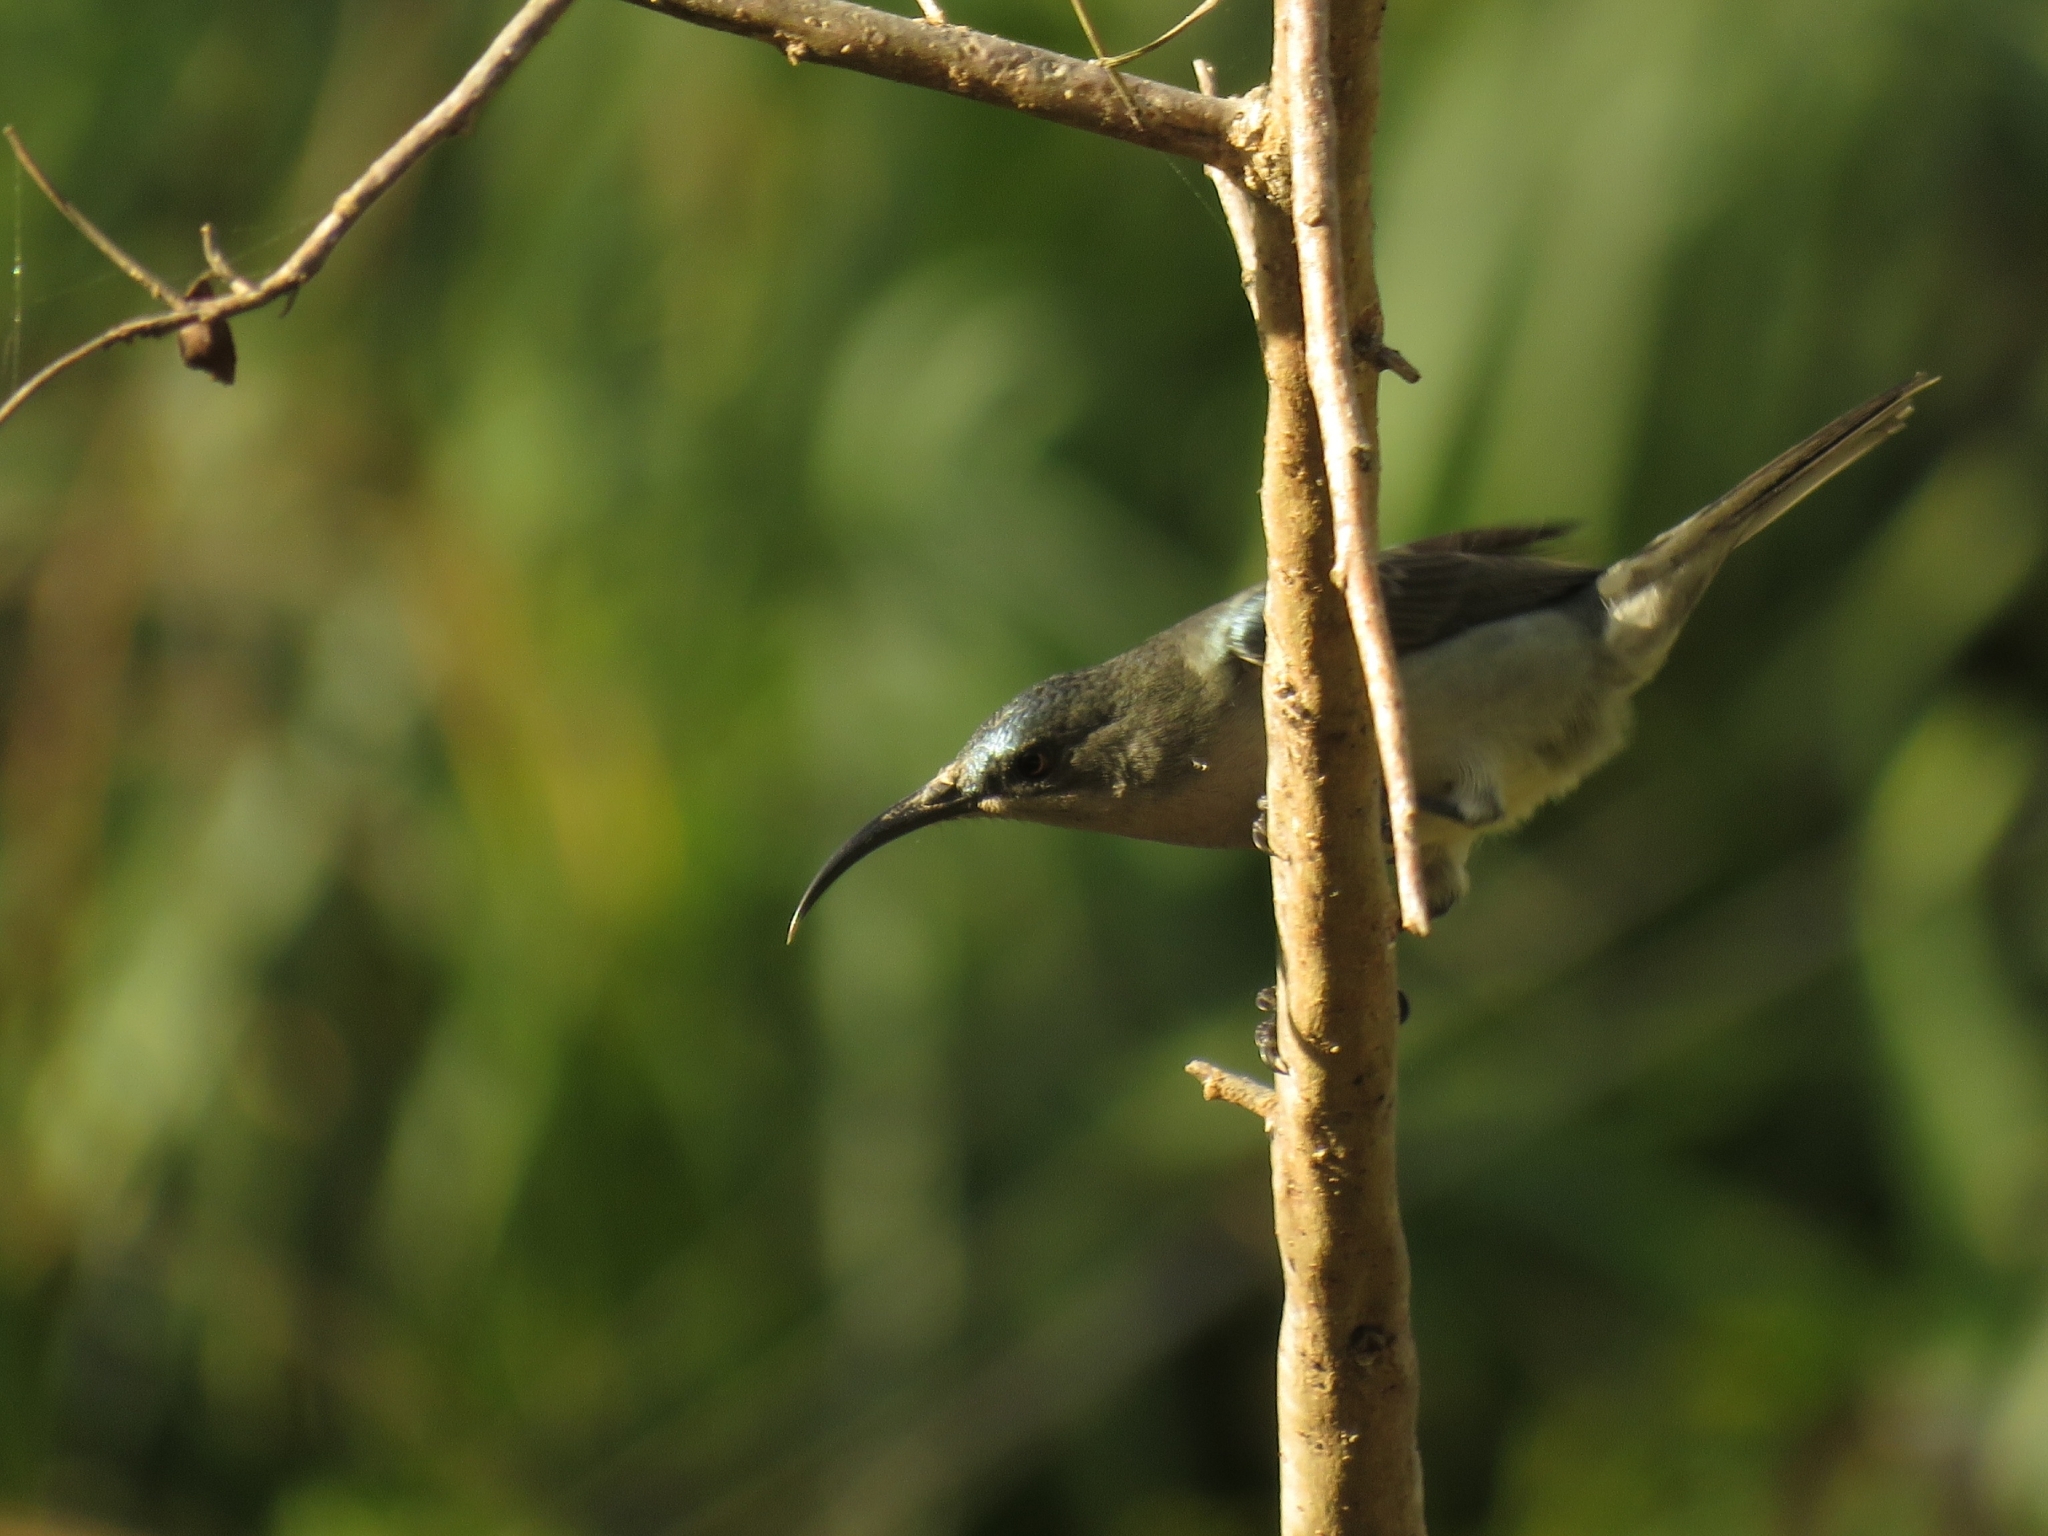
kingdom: Animalia
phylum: Chordata
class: Aves
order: Passeriformes
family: Nectariniidae
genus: Cyanomitra
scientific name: Cyanomitra veroxii
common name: Grey sunbird
